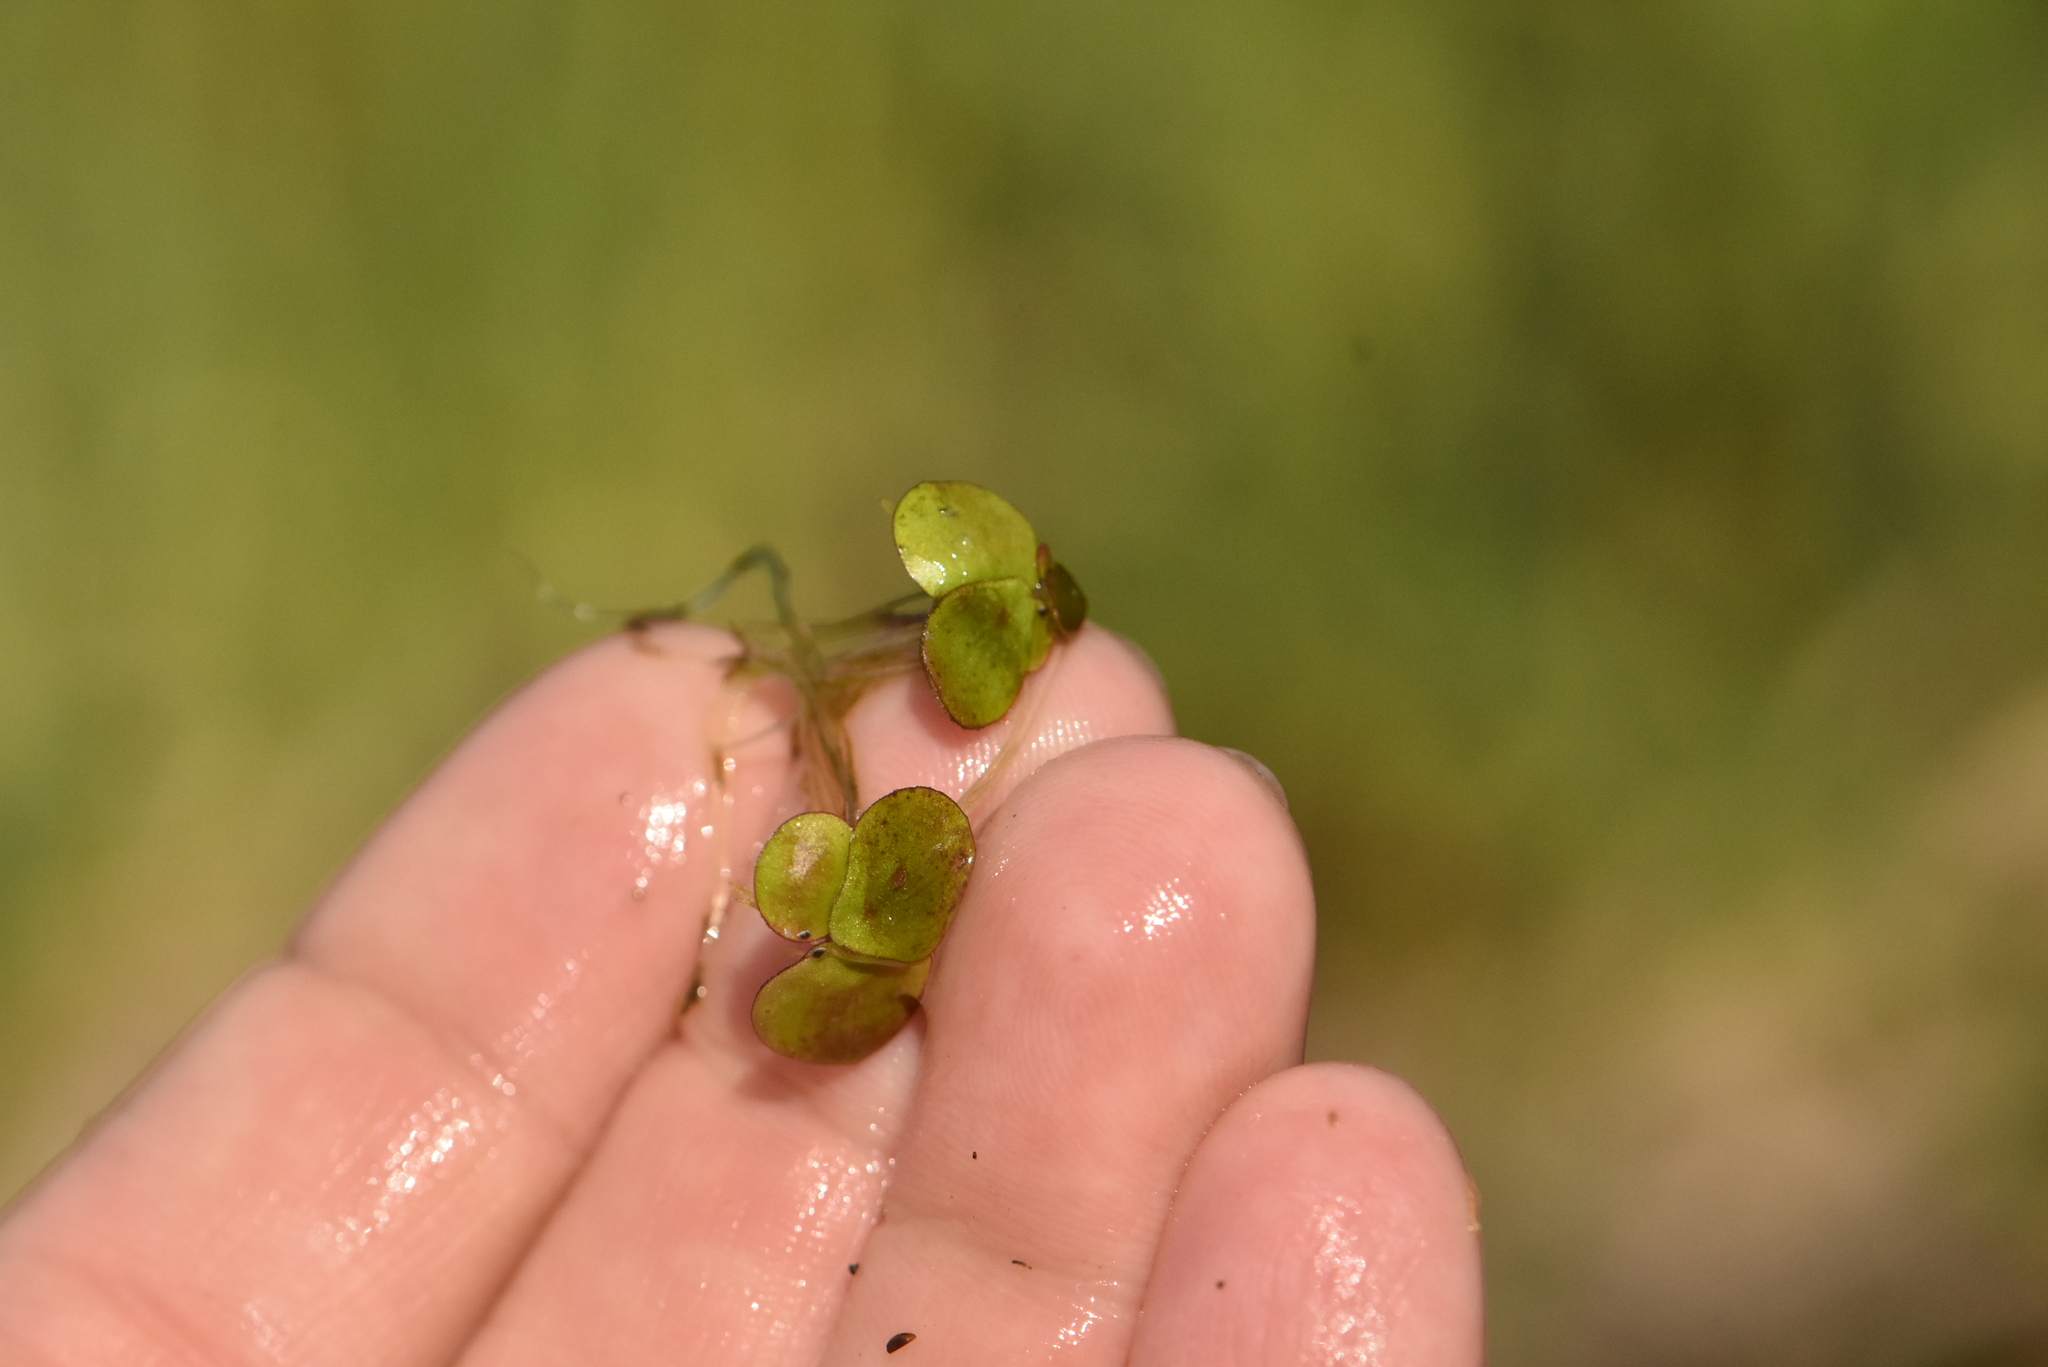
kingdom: Plantae
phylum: Tracheophyta
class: Liliopsida
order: Alismatales
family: Araceae
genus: Spirodela
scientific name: Spirodela polyrhiza
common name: Great duckweed
